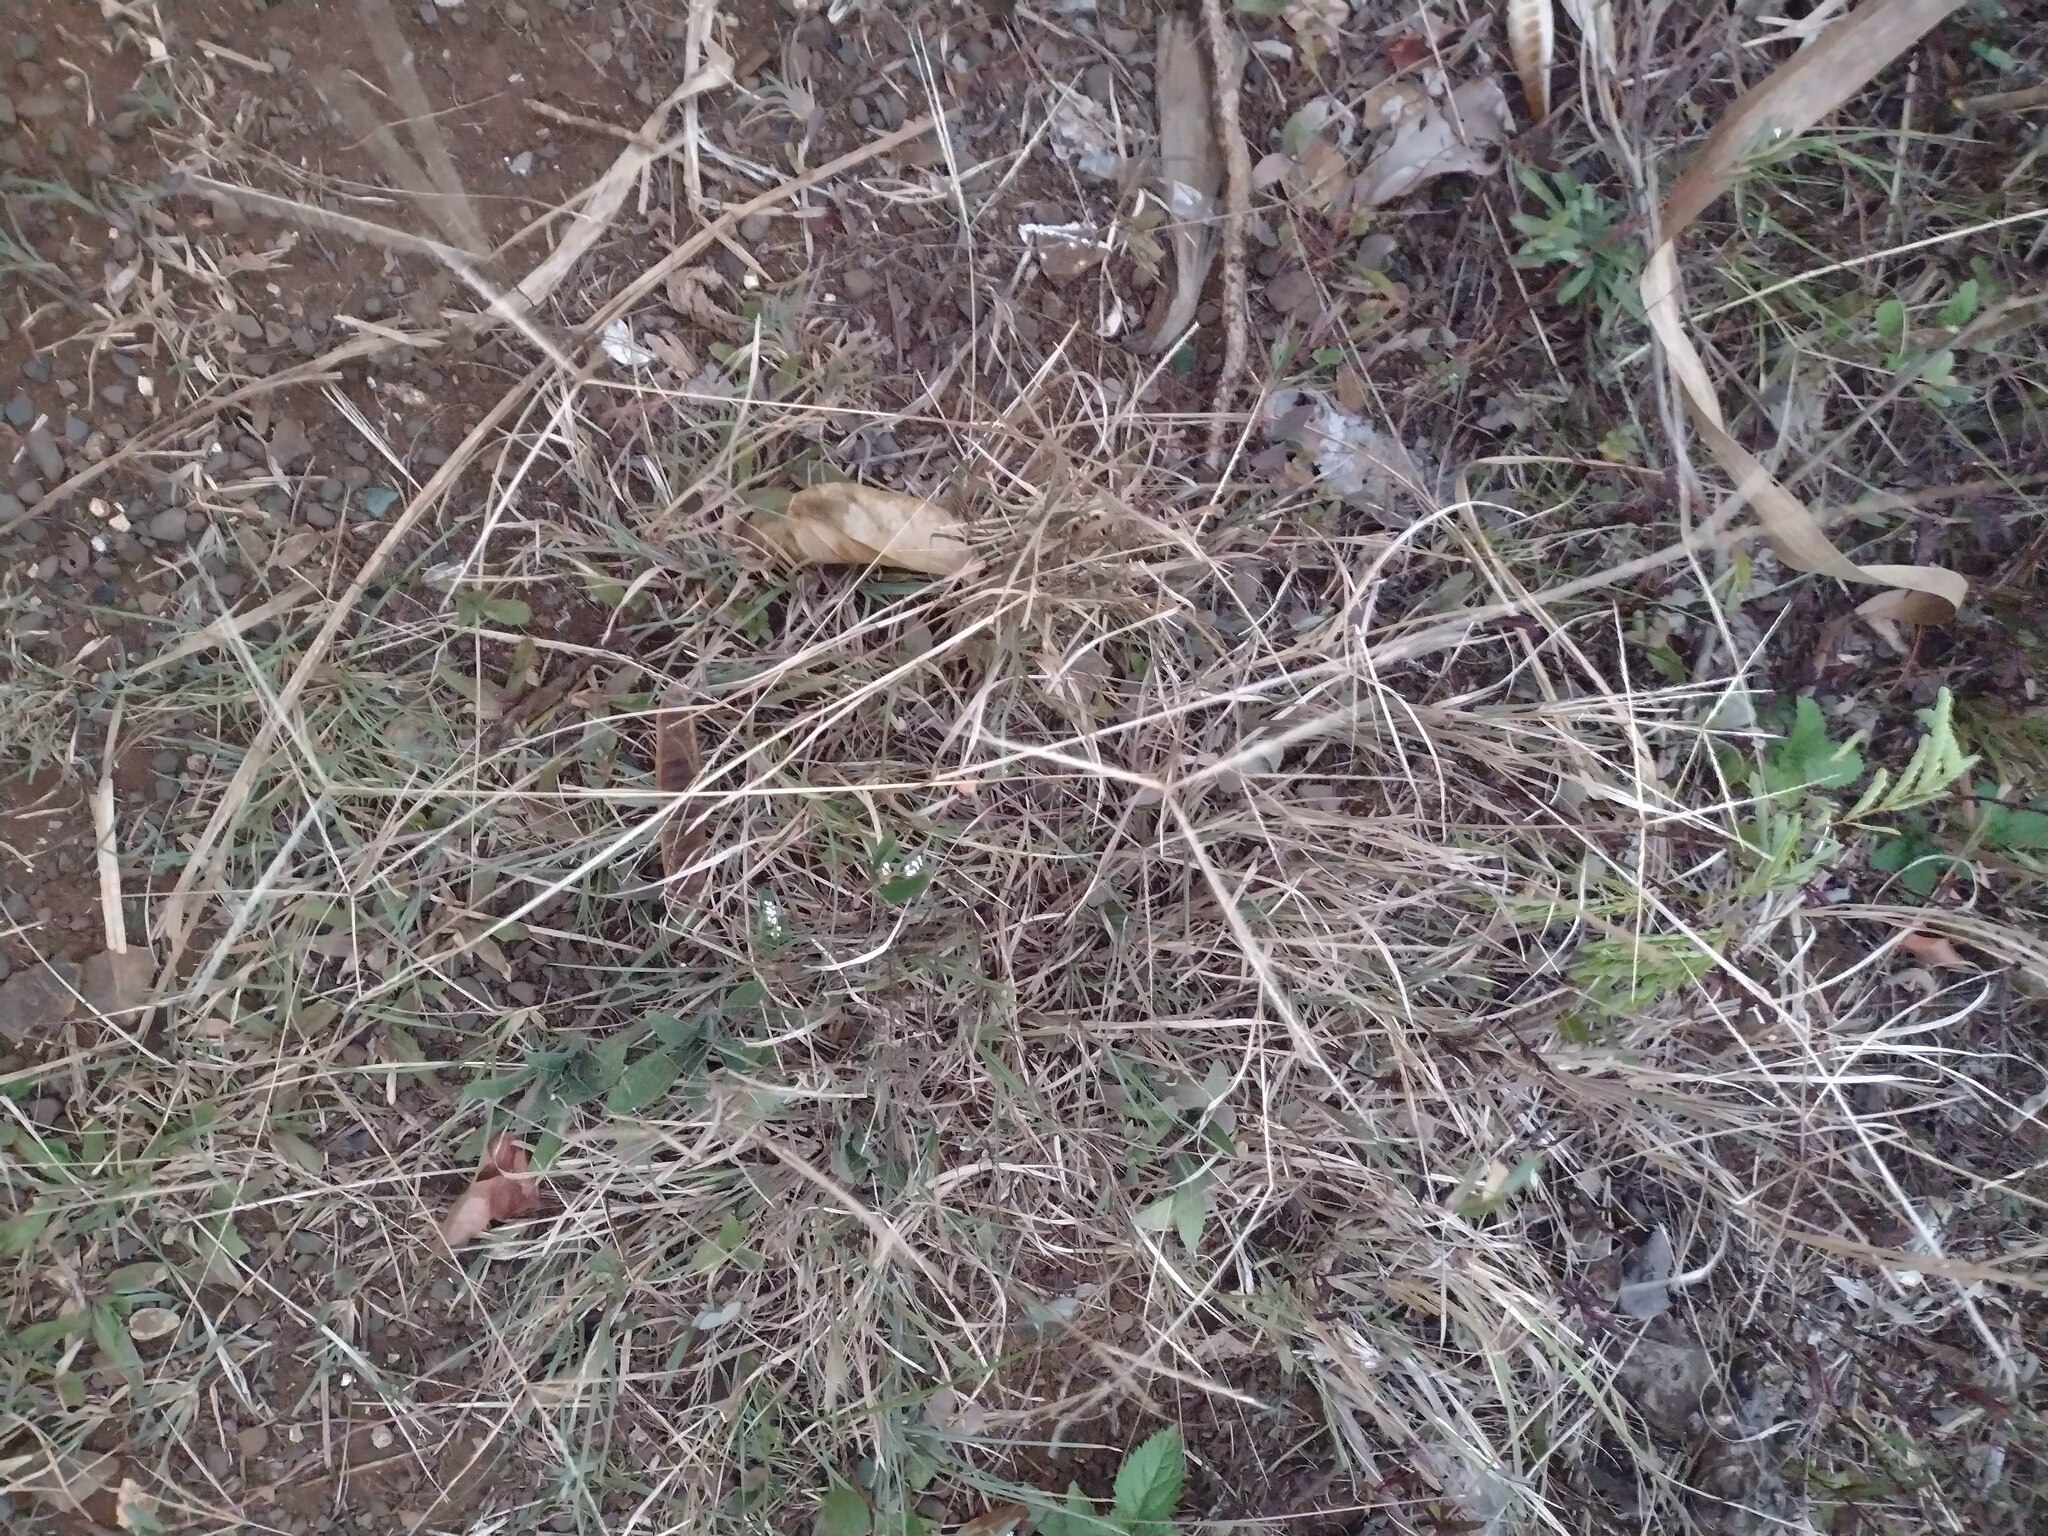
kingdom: Plantae
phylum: Tracheophyta
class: Liliopsida
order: Poales
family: Poaceae
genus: Chloris
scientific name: Chloris divaricata
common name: Spreading windmill grass
